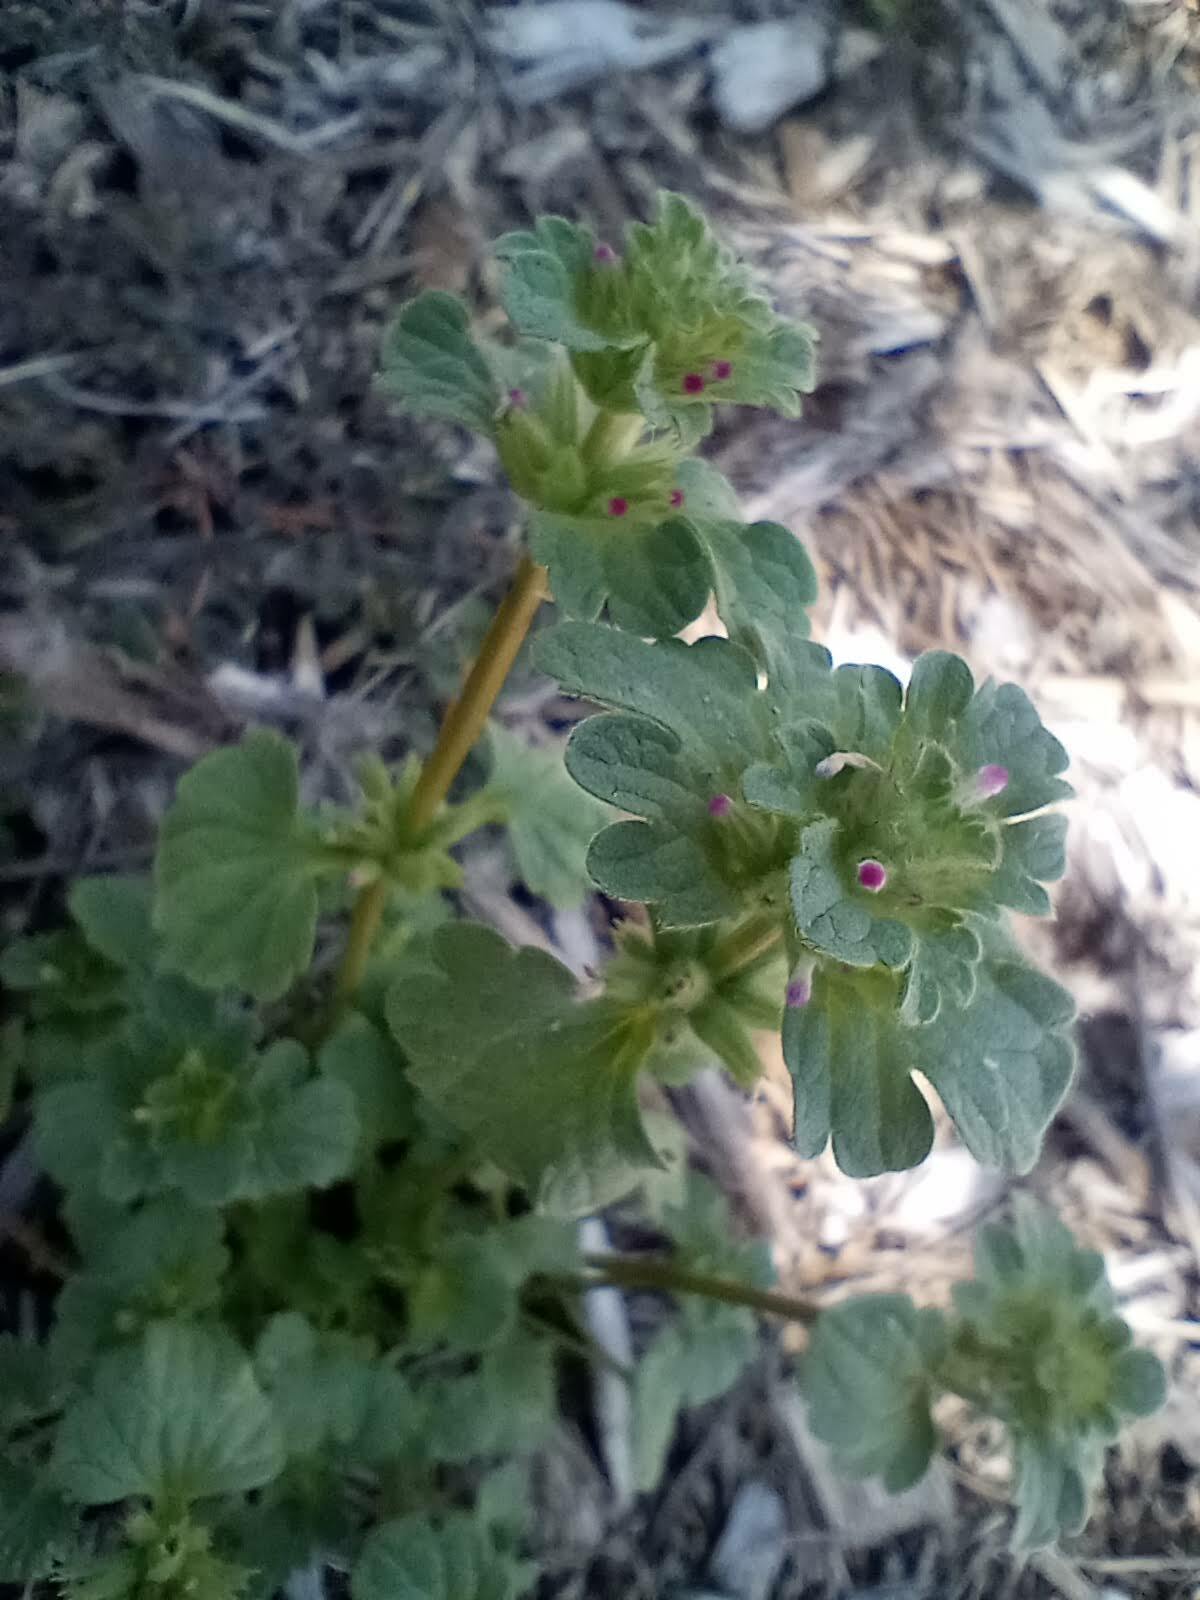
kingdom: Plantae
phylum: Tracheophyta
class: Magnoliopsida
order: Lamiales
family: Lamiaceae
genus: Lamium
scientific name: Lamium amplexicaule
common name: Henbit dead-nettle
